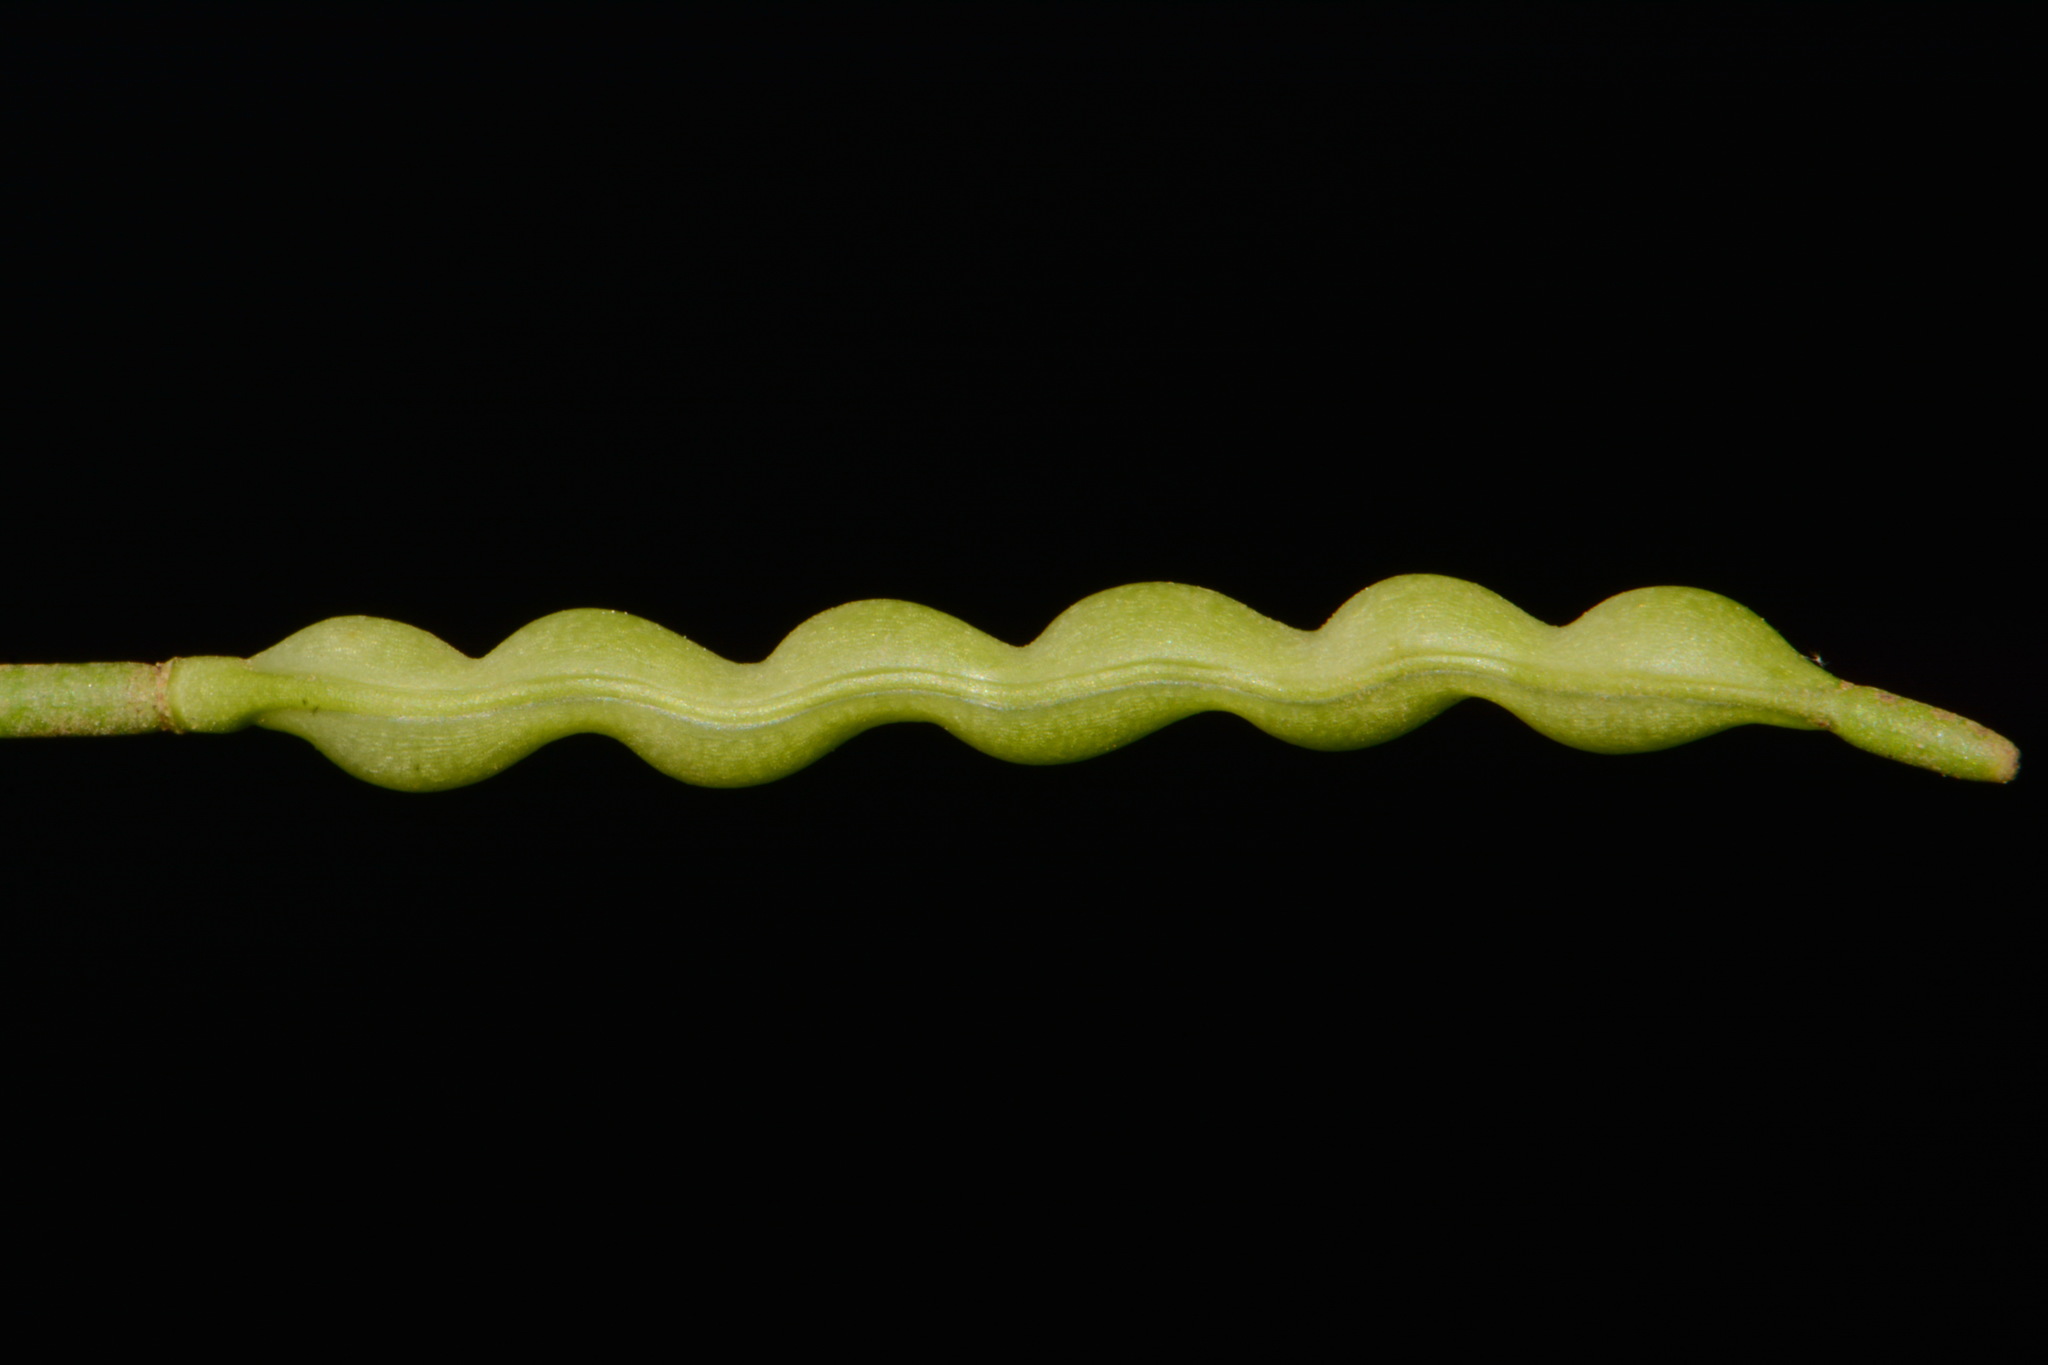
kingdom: Plantae
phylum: Tracheophyta
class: Magnoliopsida
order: Brassicales
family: Brassicaceae
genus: Leavenworthia
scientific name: Leavenworthia torulosa
